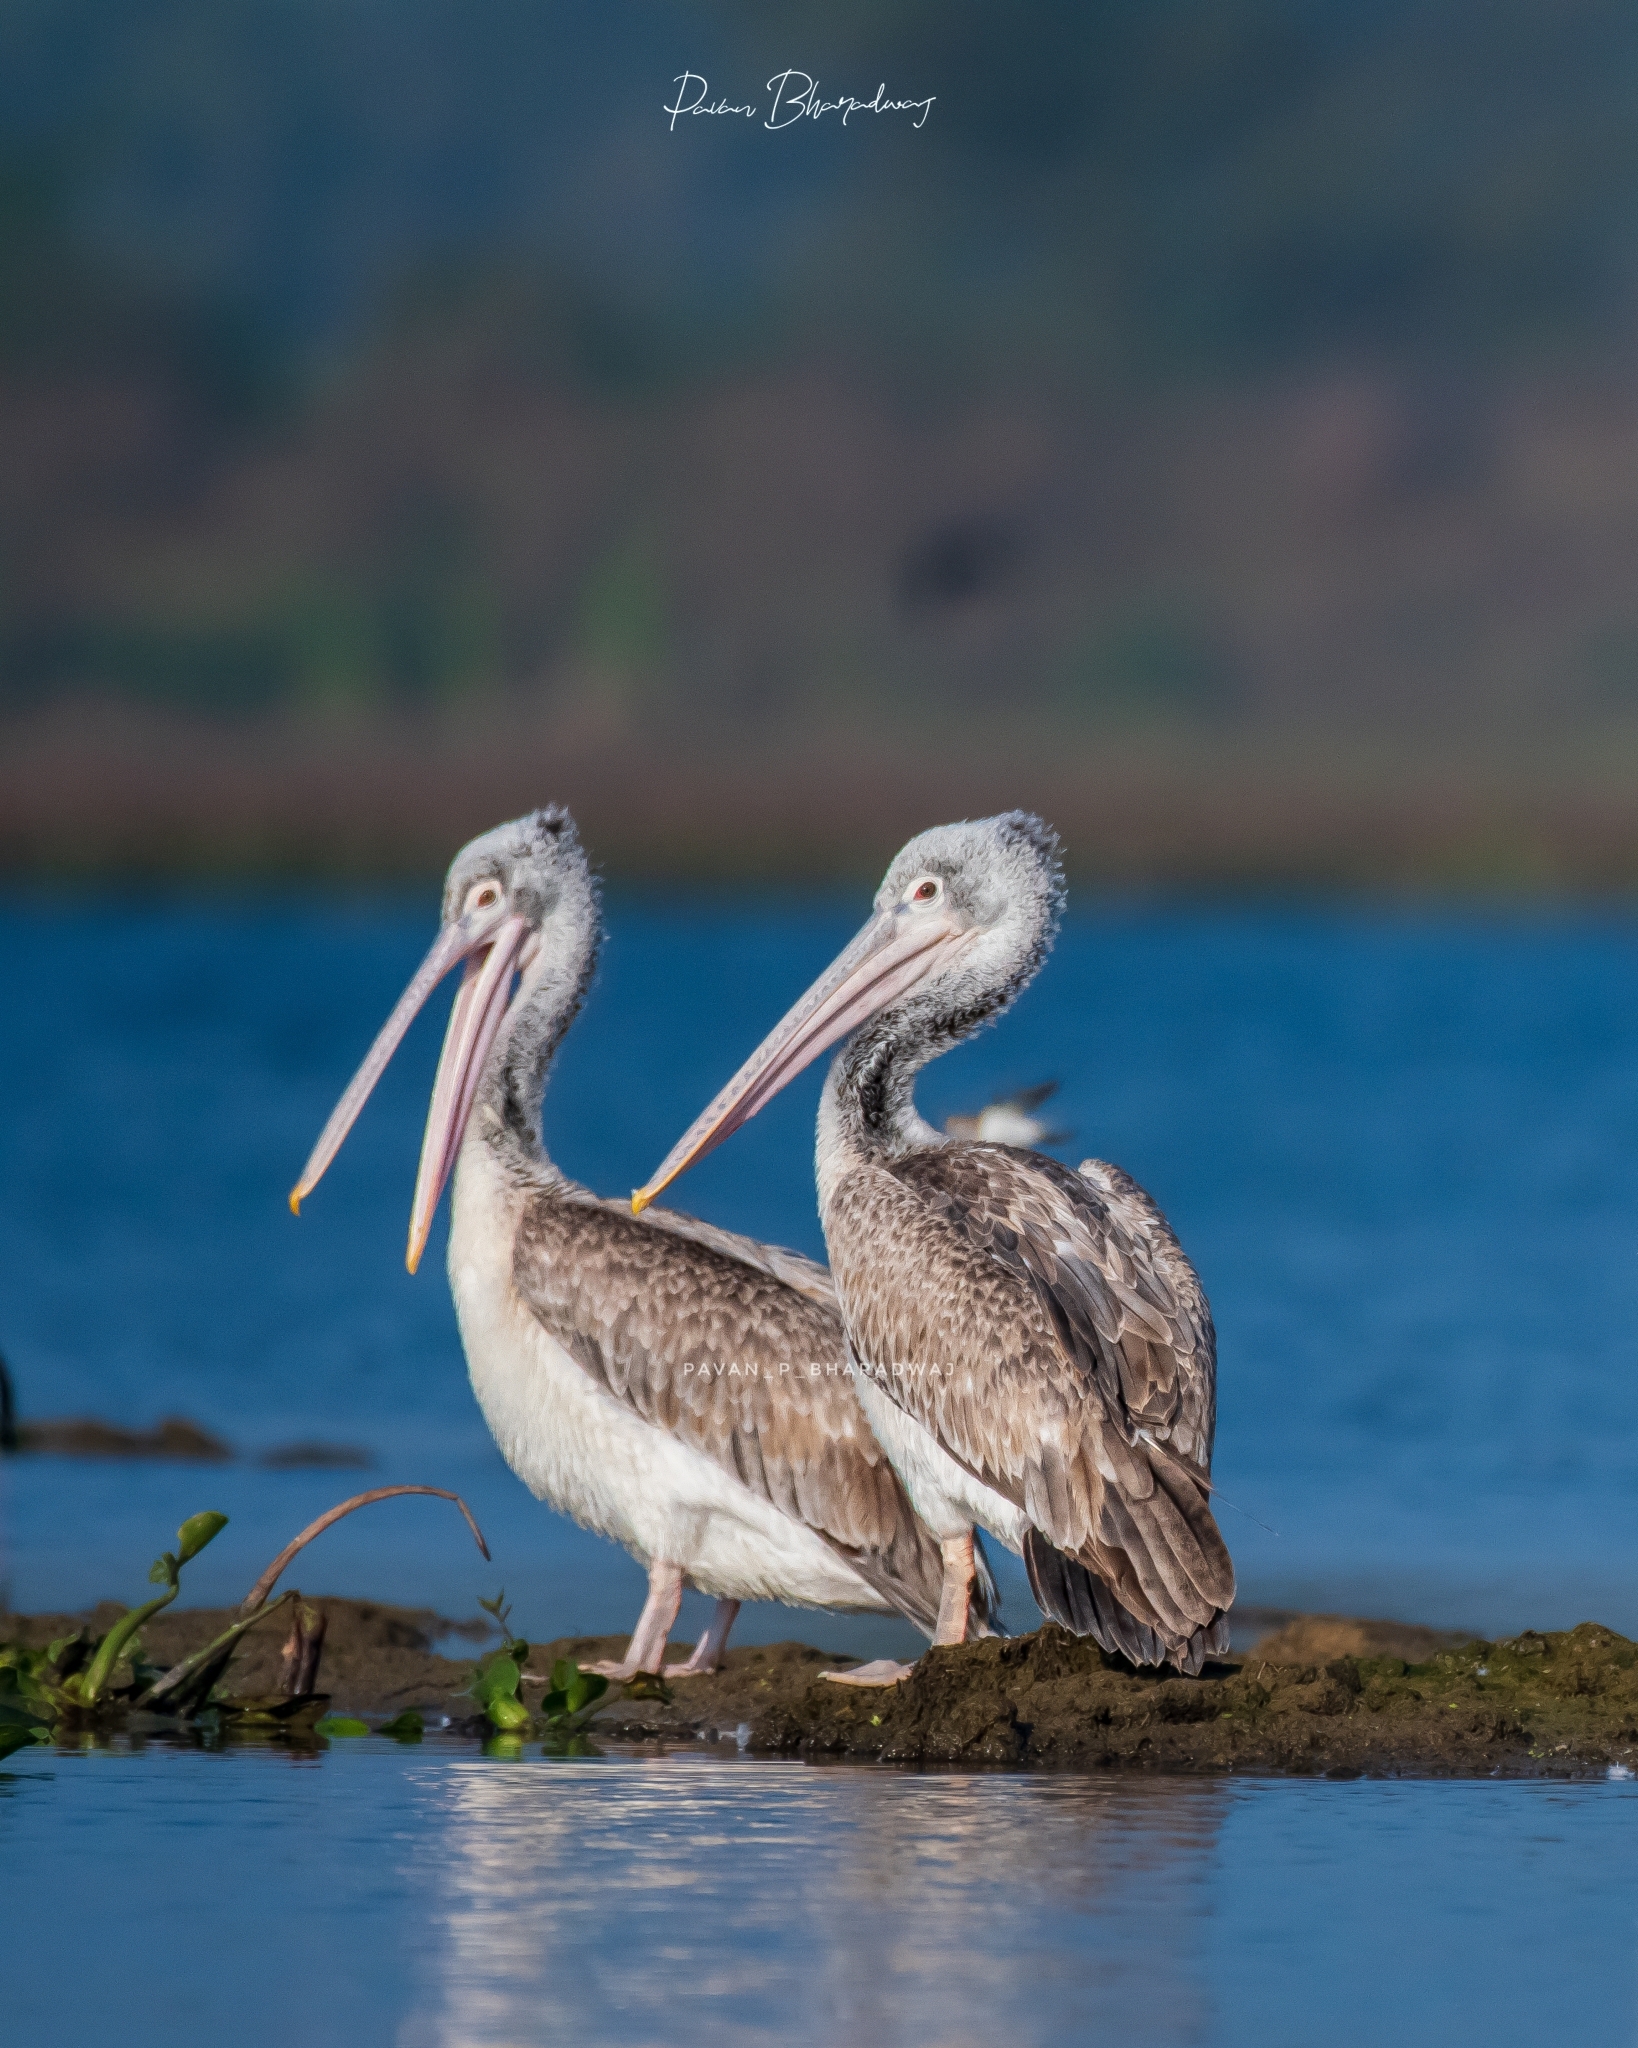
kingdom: Animalia
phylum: Chordata
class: Aves
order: Pelecaniformes
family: Pelecanidae
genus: Pelecanus
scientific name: Pelecanus philippensis
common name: Spot-billed pelican
